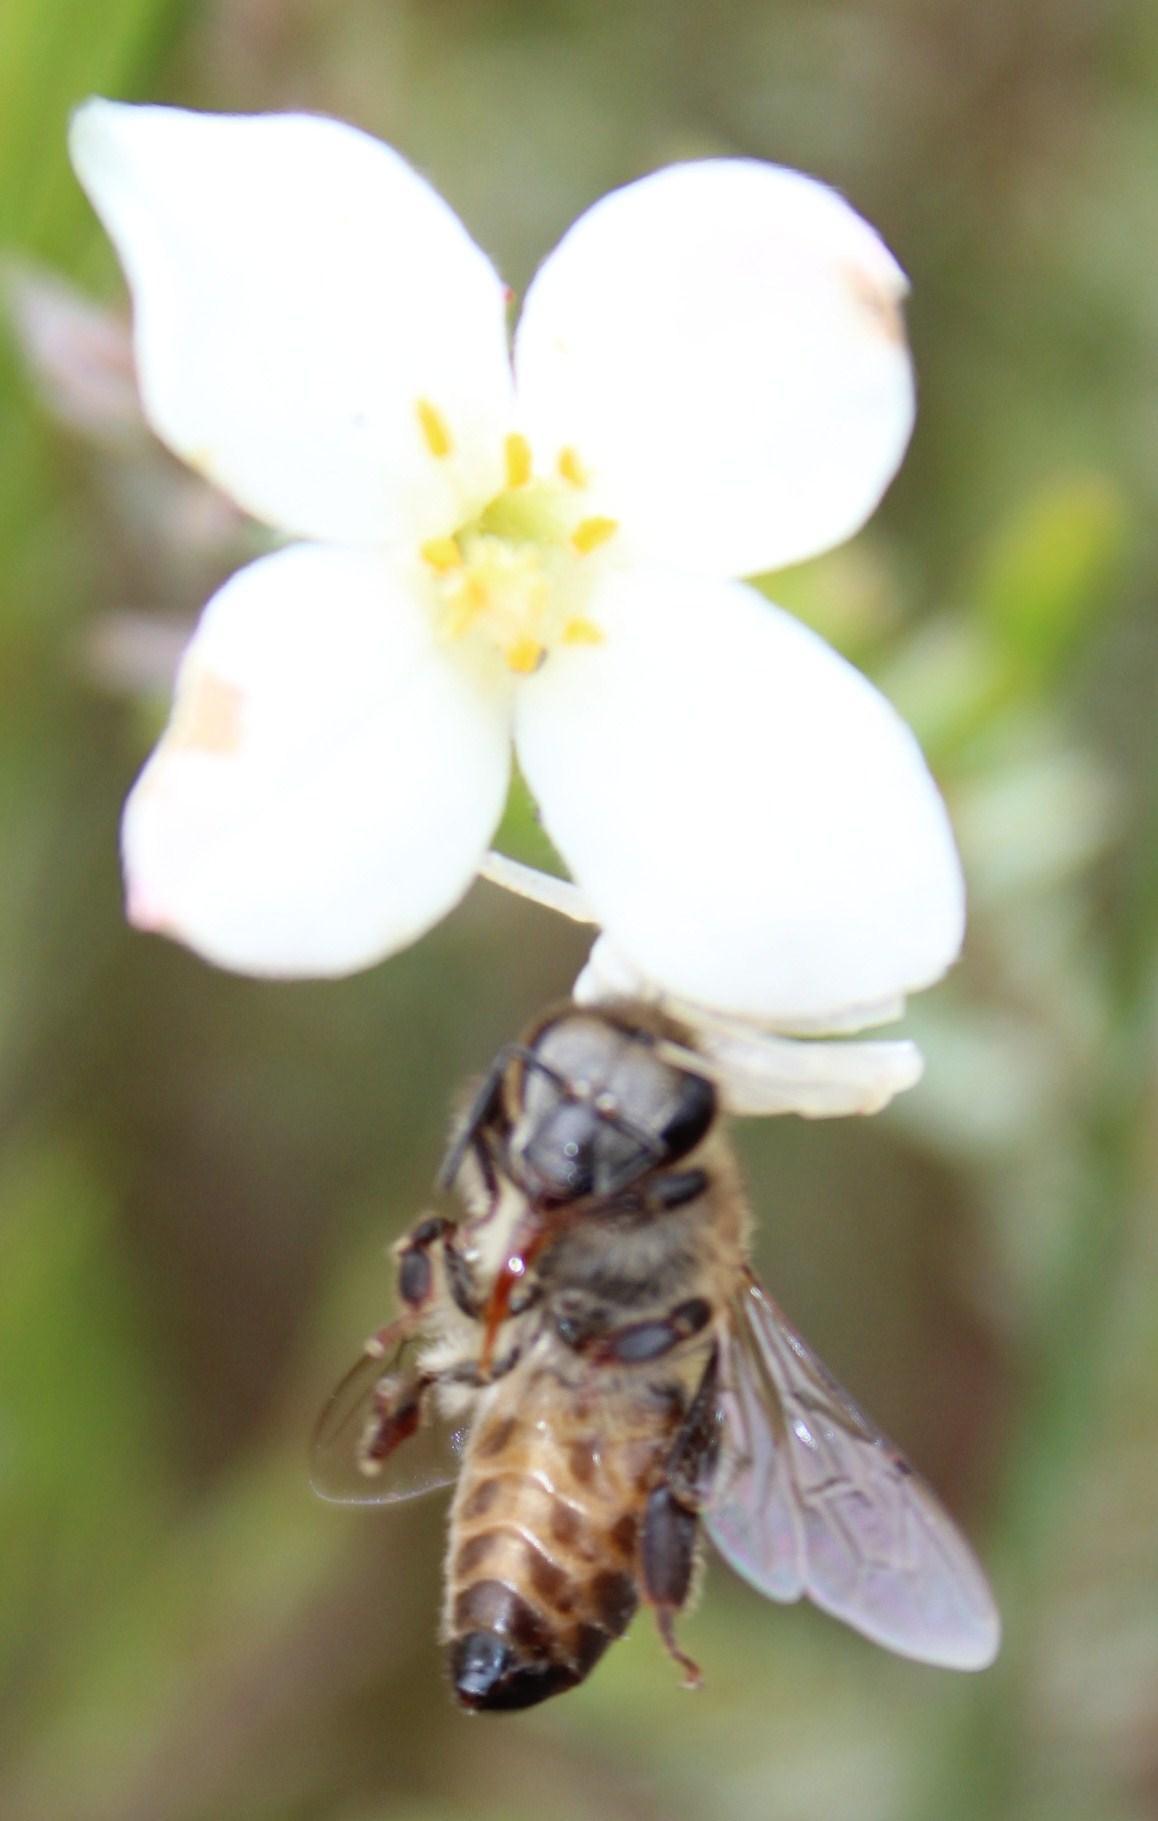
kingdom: Animalia
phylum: Arthropoda
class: Insecta
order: Hymenoptera
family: Apidae
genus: Apis
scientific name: Apis mellifera
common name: Honey bee
